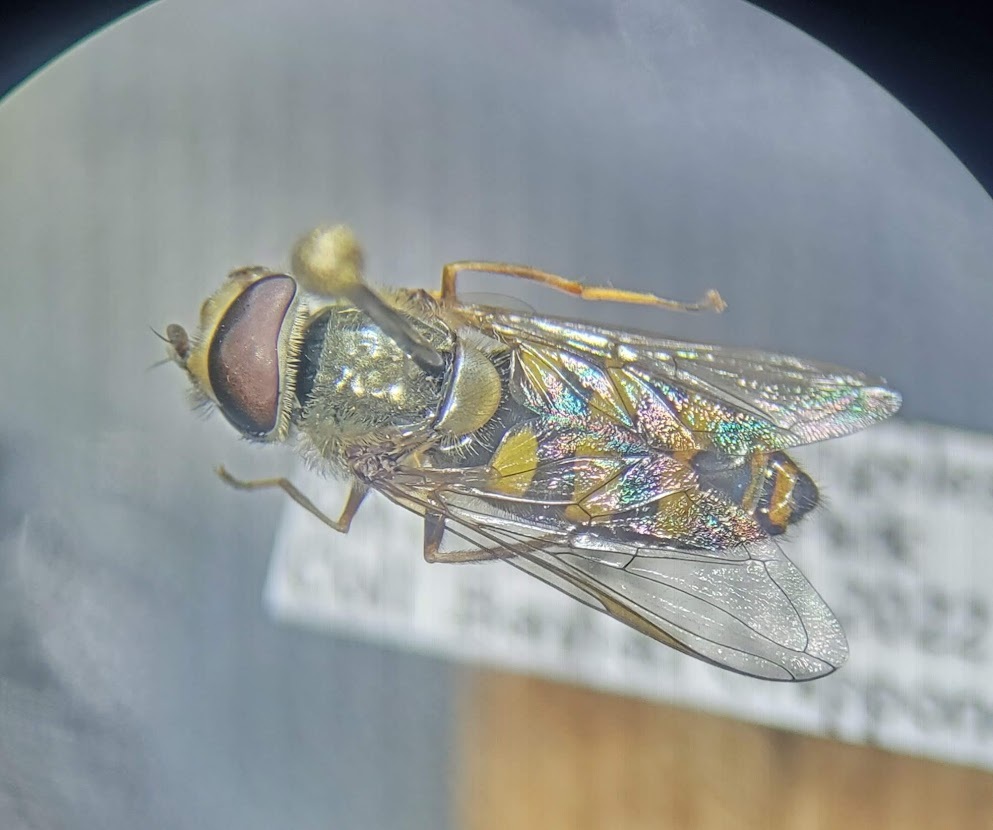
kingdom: Animalia
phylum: Arthropoda
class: Insecta
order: Diptera
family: Syrphidae
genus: Eupeodes
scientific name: Eupeodes fumipennis
